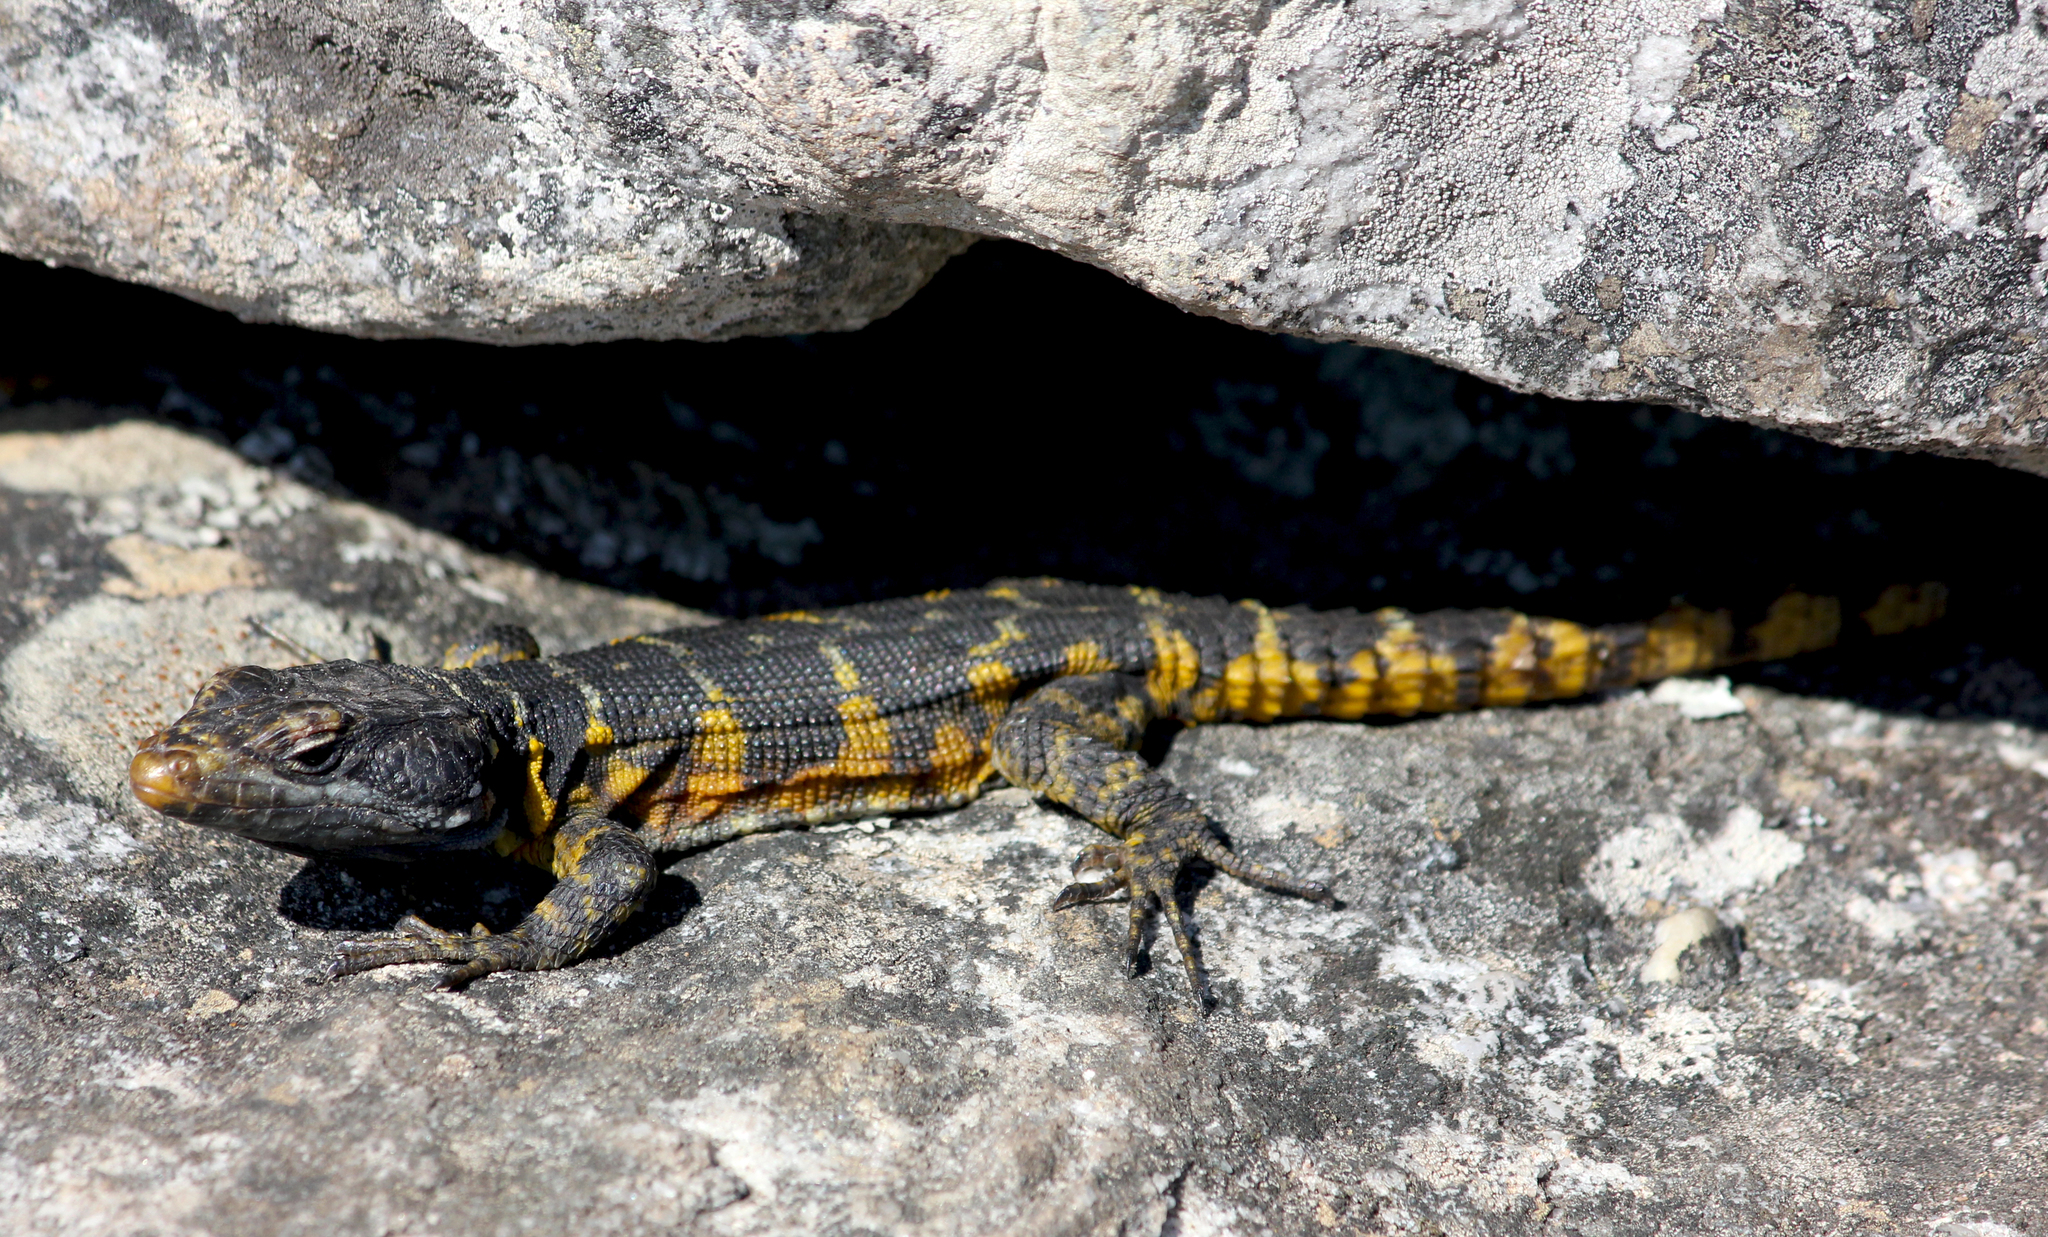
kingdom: Animalia
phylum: Chordata
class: Squamata
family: Cordylidae
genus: Pseudocordylus
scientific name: Pseudocordylus microlepidotus
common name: Cape crag lizard
